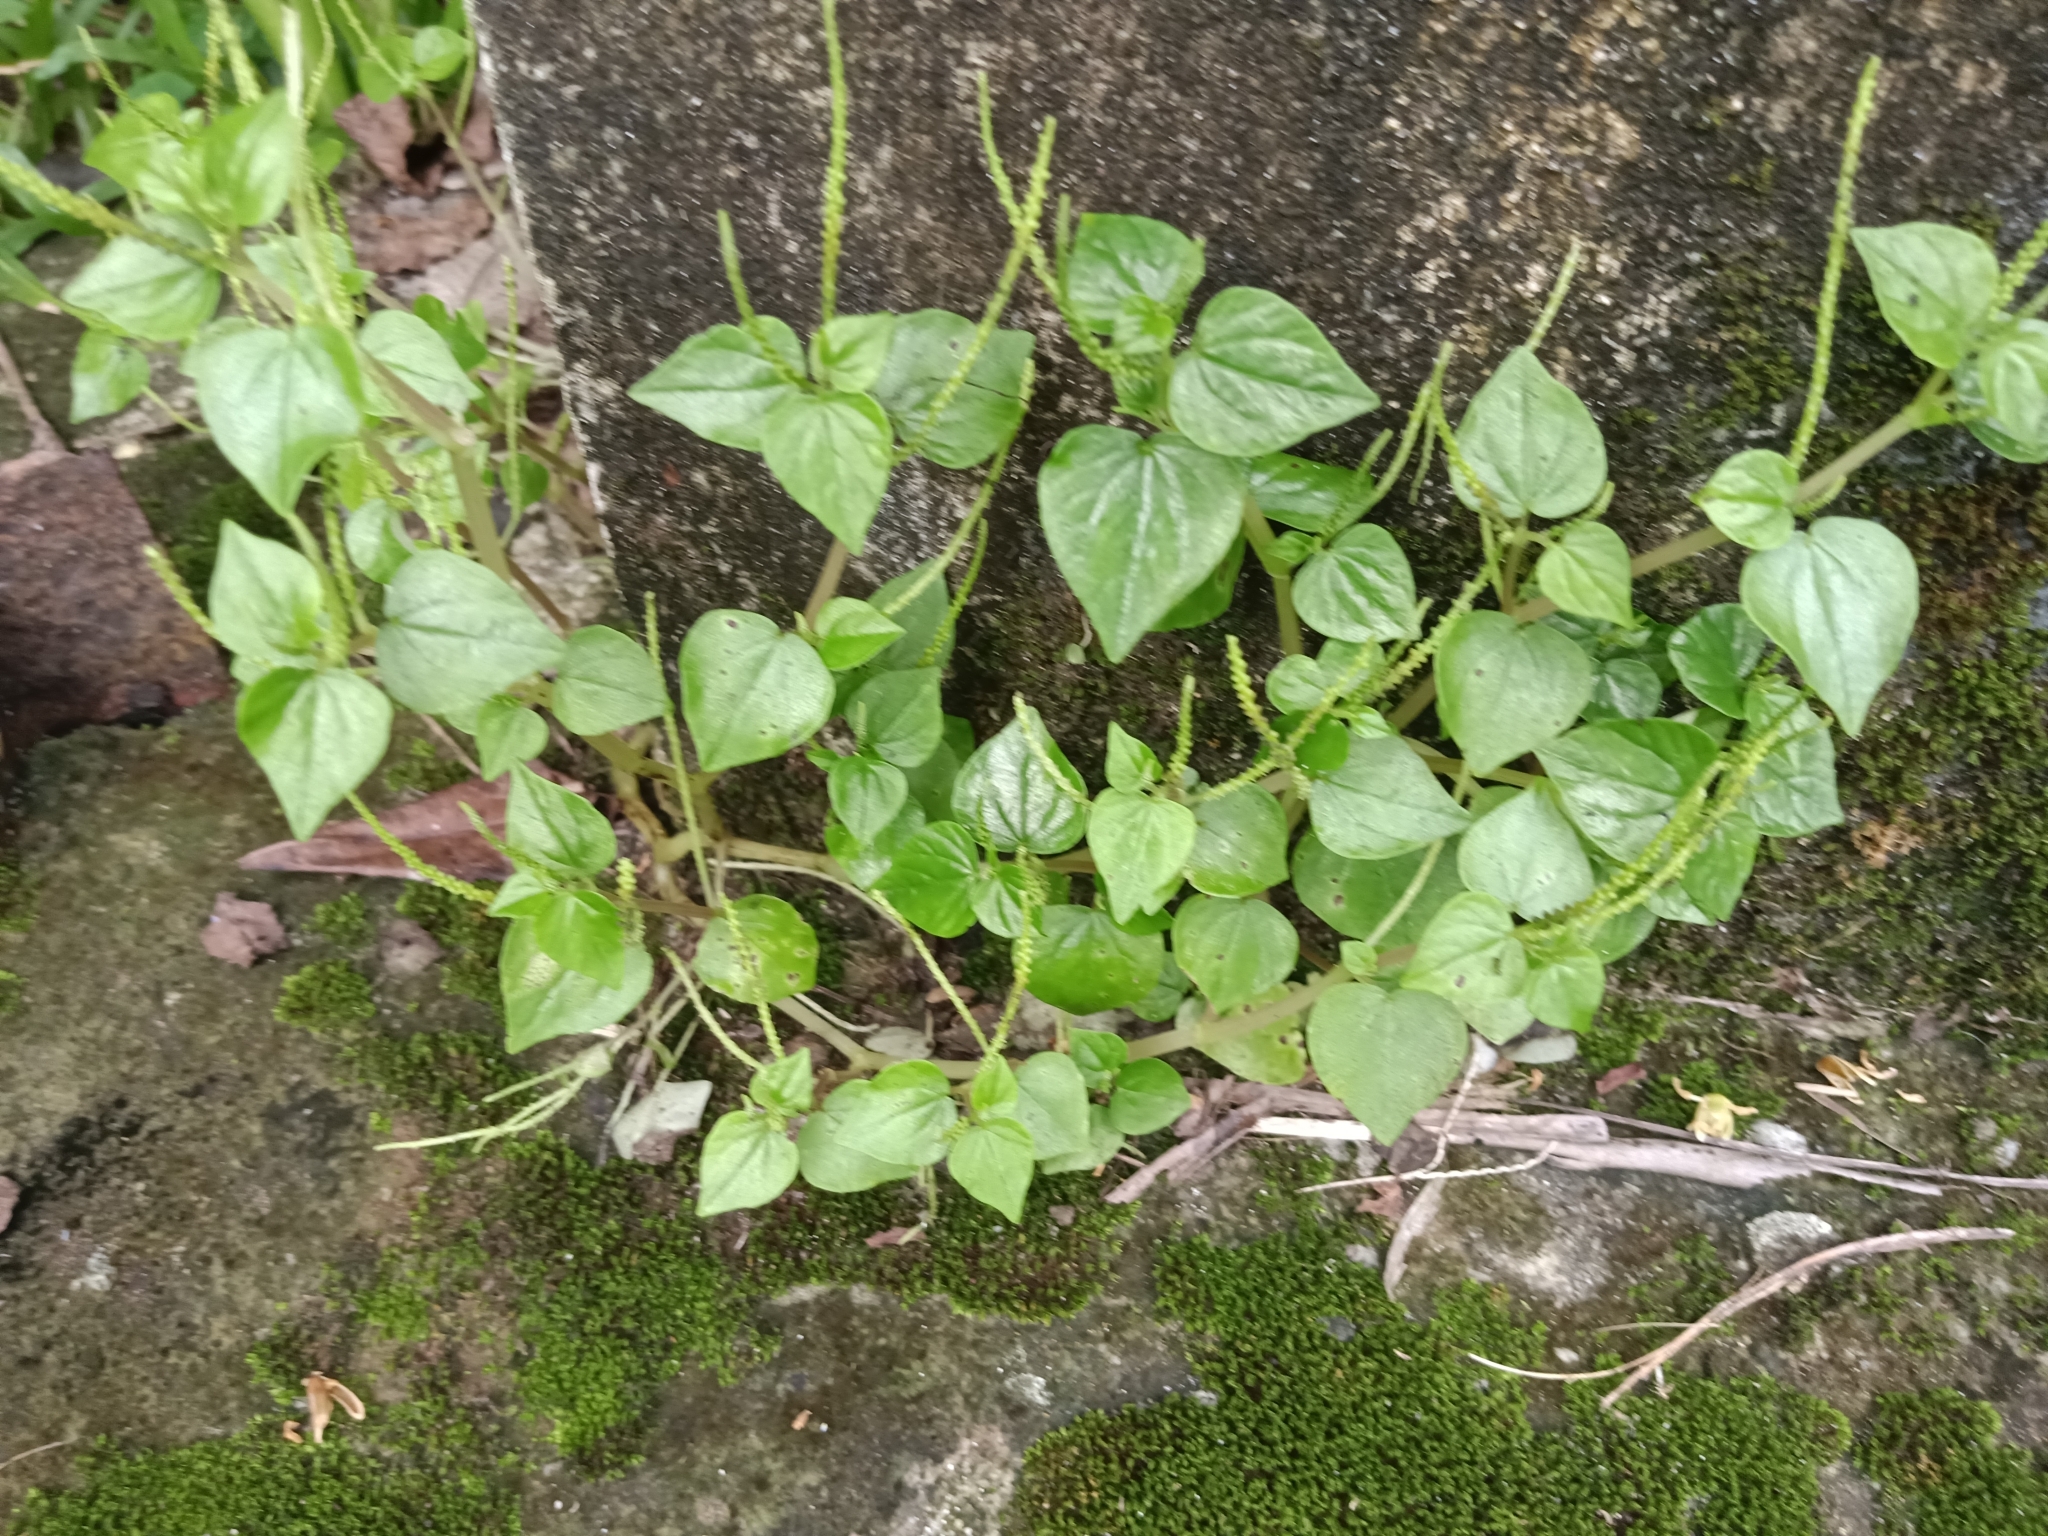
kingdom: Plantae
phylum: Tracheophyta
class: Magnoliopsida
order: Piperales
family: Piperaceae
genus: Peperomia
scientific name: Peperomia pellucida
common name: Man to man
